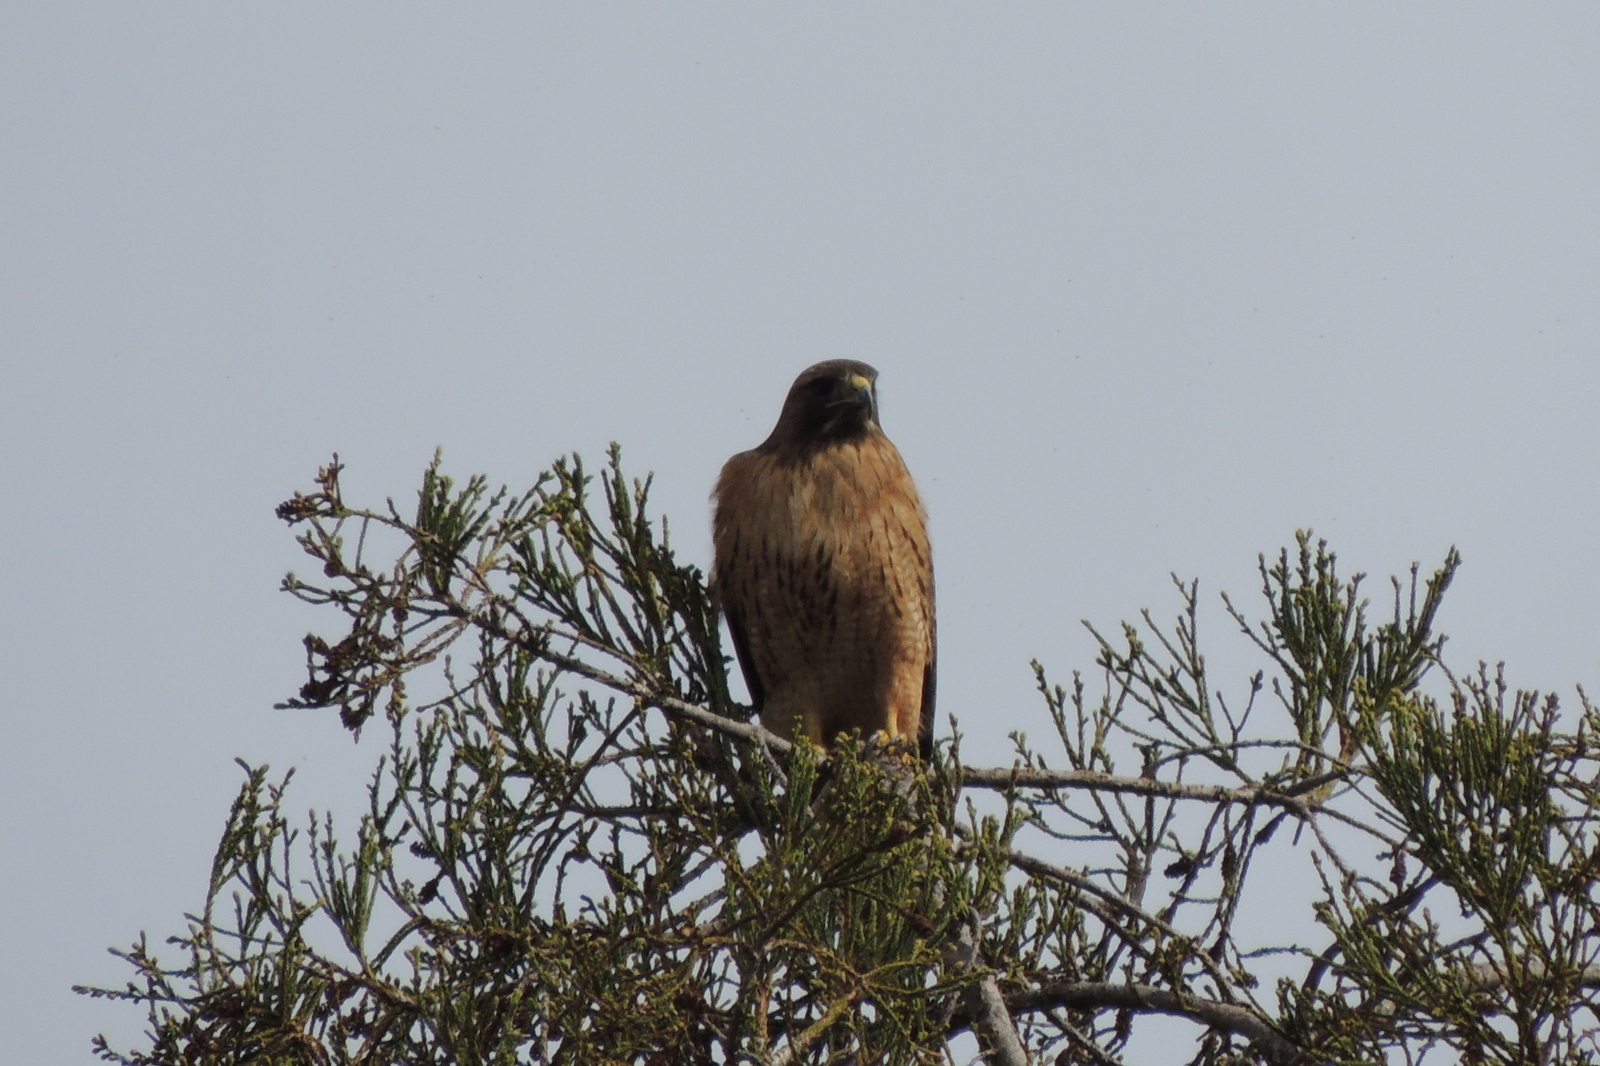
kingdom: Animalia
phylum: Chordata
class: Aves
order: Accipitriformes
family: Accipitridae
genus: Buteo
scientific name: Buteo jamaicensis
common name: Red-tailed hawk
